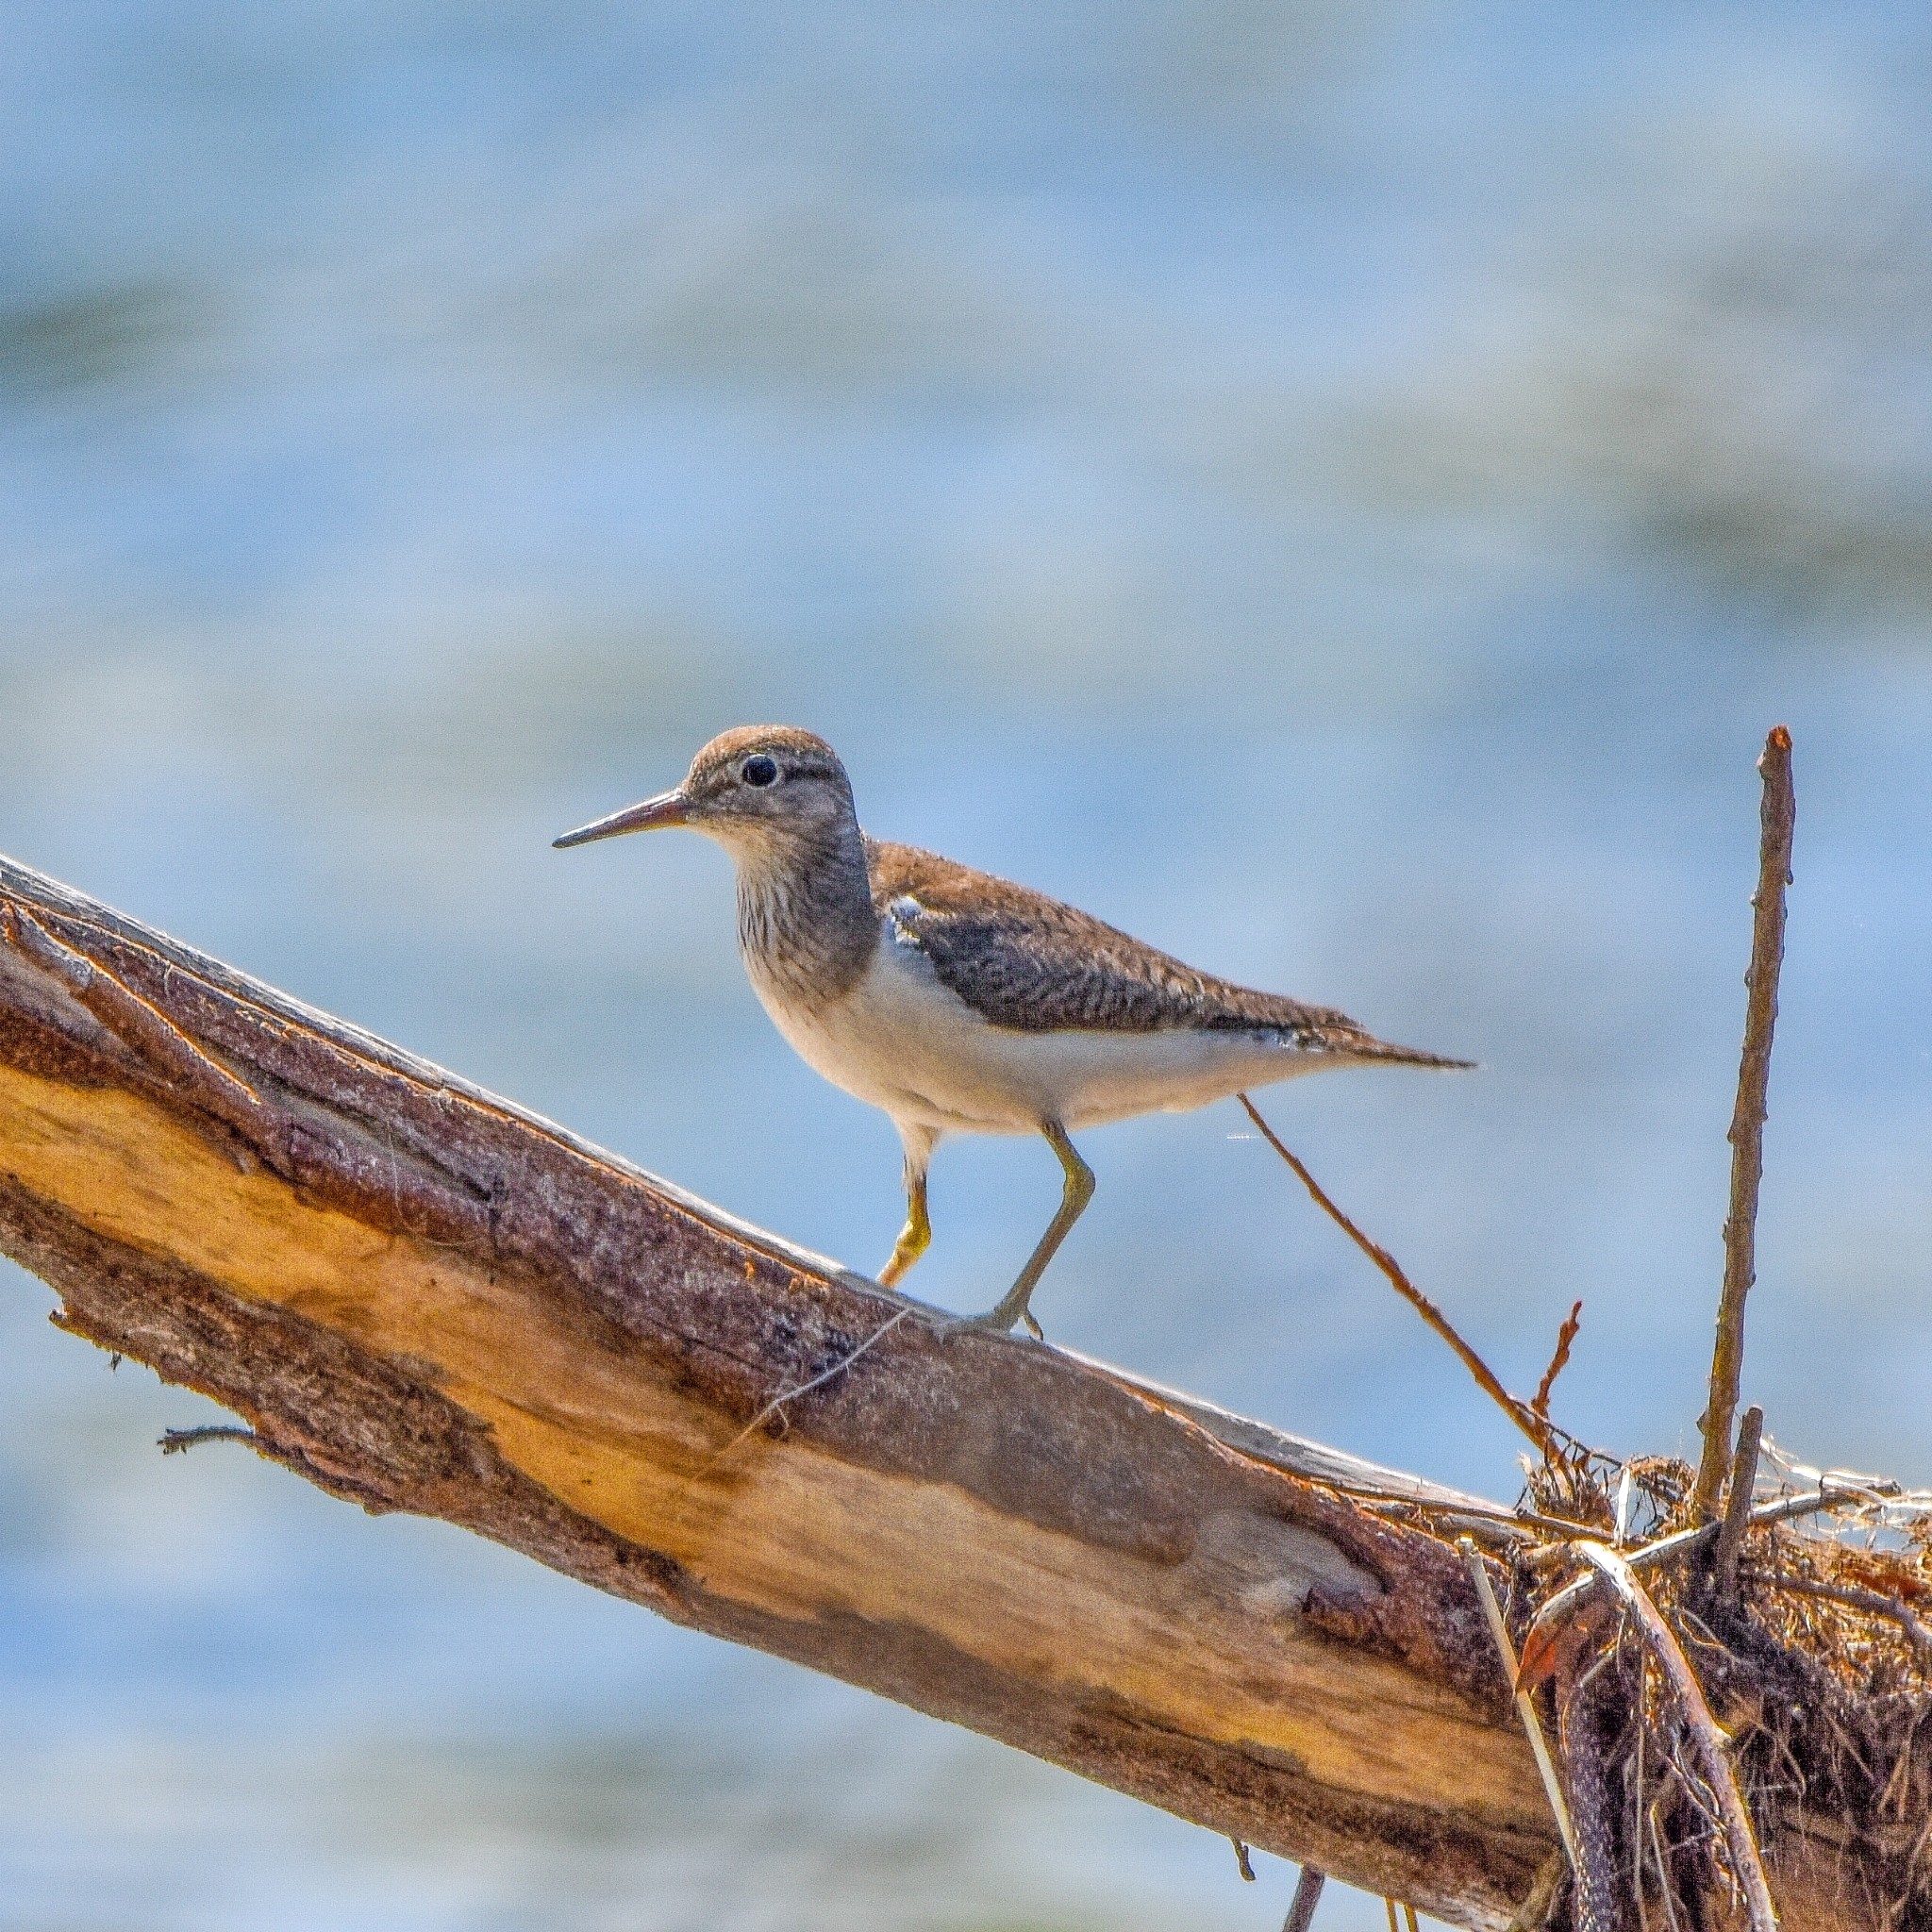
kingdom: Animalia
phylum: Chordata
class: Aves
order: Charadriiformes
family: Scolopacidae
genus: Actitis
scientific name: Actitis hypoleucos
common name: Common sandpiper
